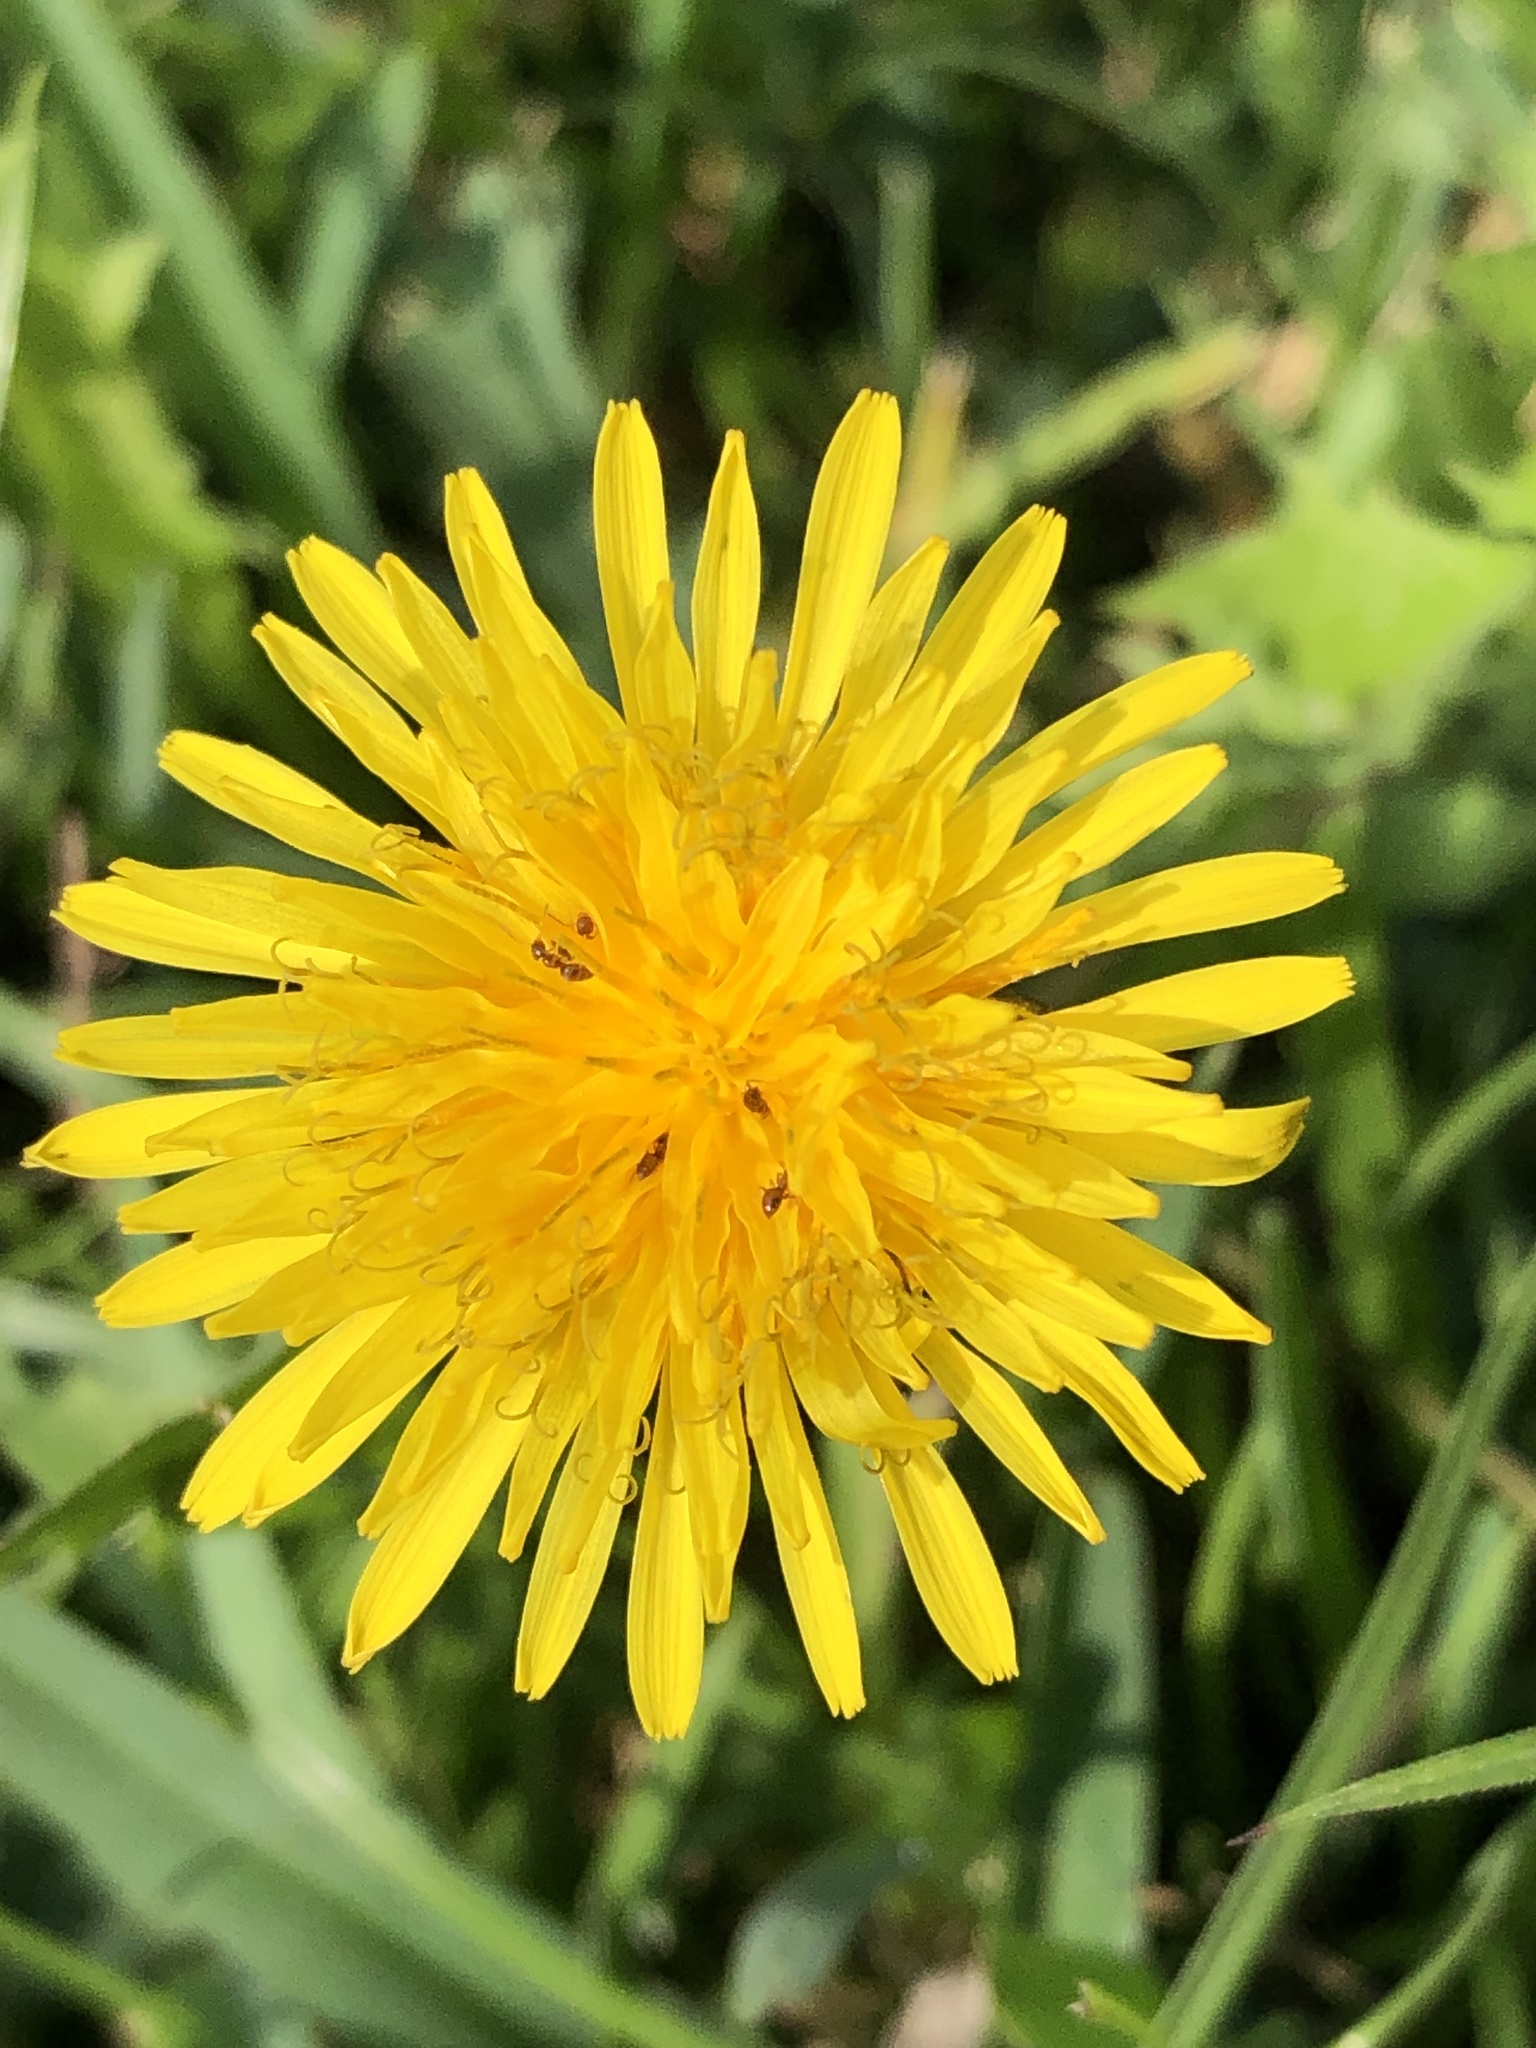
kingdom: Plantae
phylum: Tracheophyta
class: Magnoliopsida
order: Asterales
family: Asteraceae
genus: Taraxacum
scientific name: Taraxacum officinale
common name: Common dandelion
